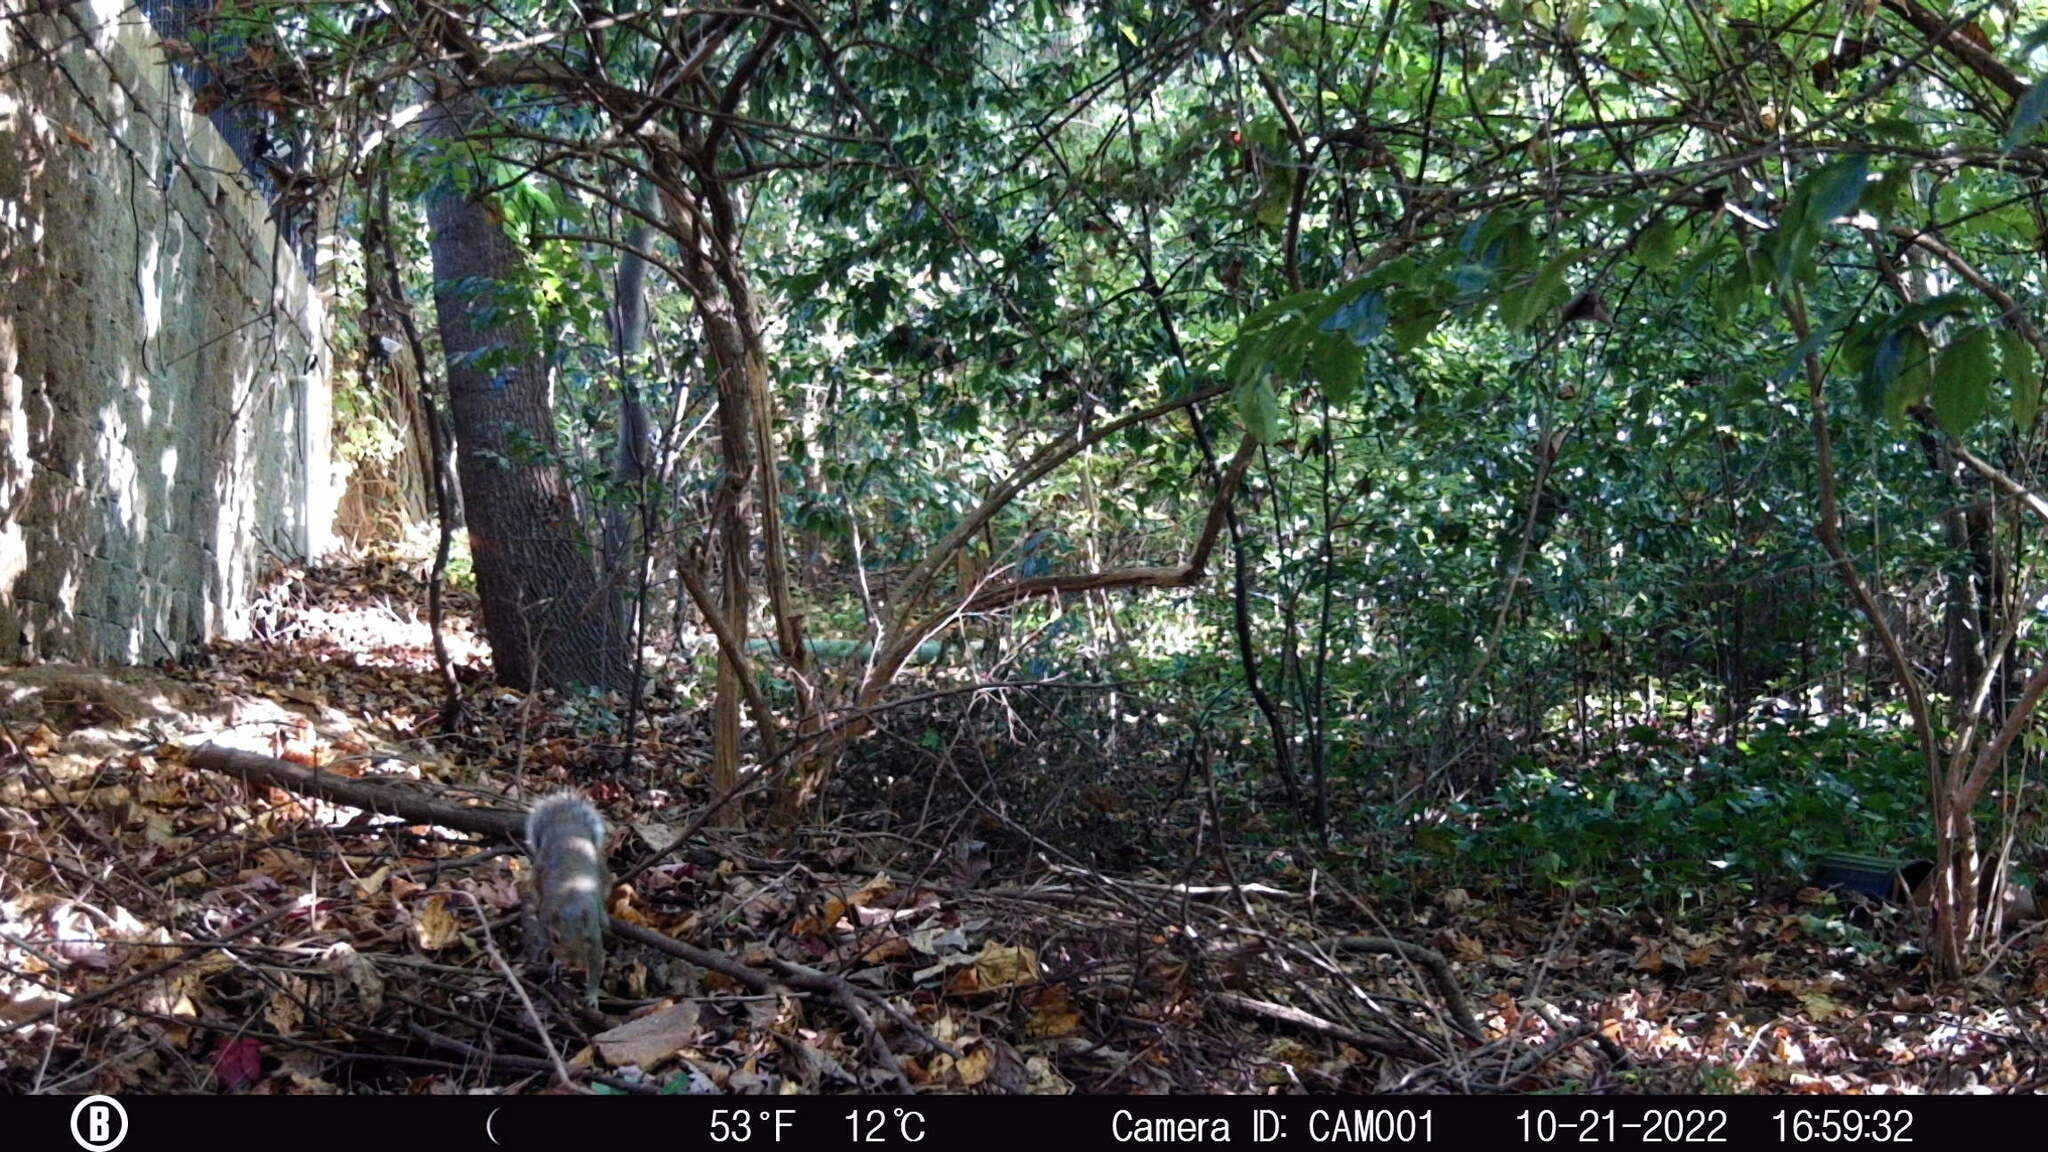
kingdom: Animalia
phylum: Chordata
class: Mammalia
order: Rodentia
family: Sciuridae
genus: Sciurus
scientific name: Sciurus carolinensis
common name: Eastern gray squirrel
